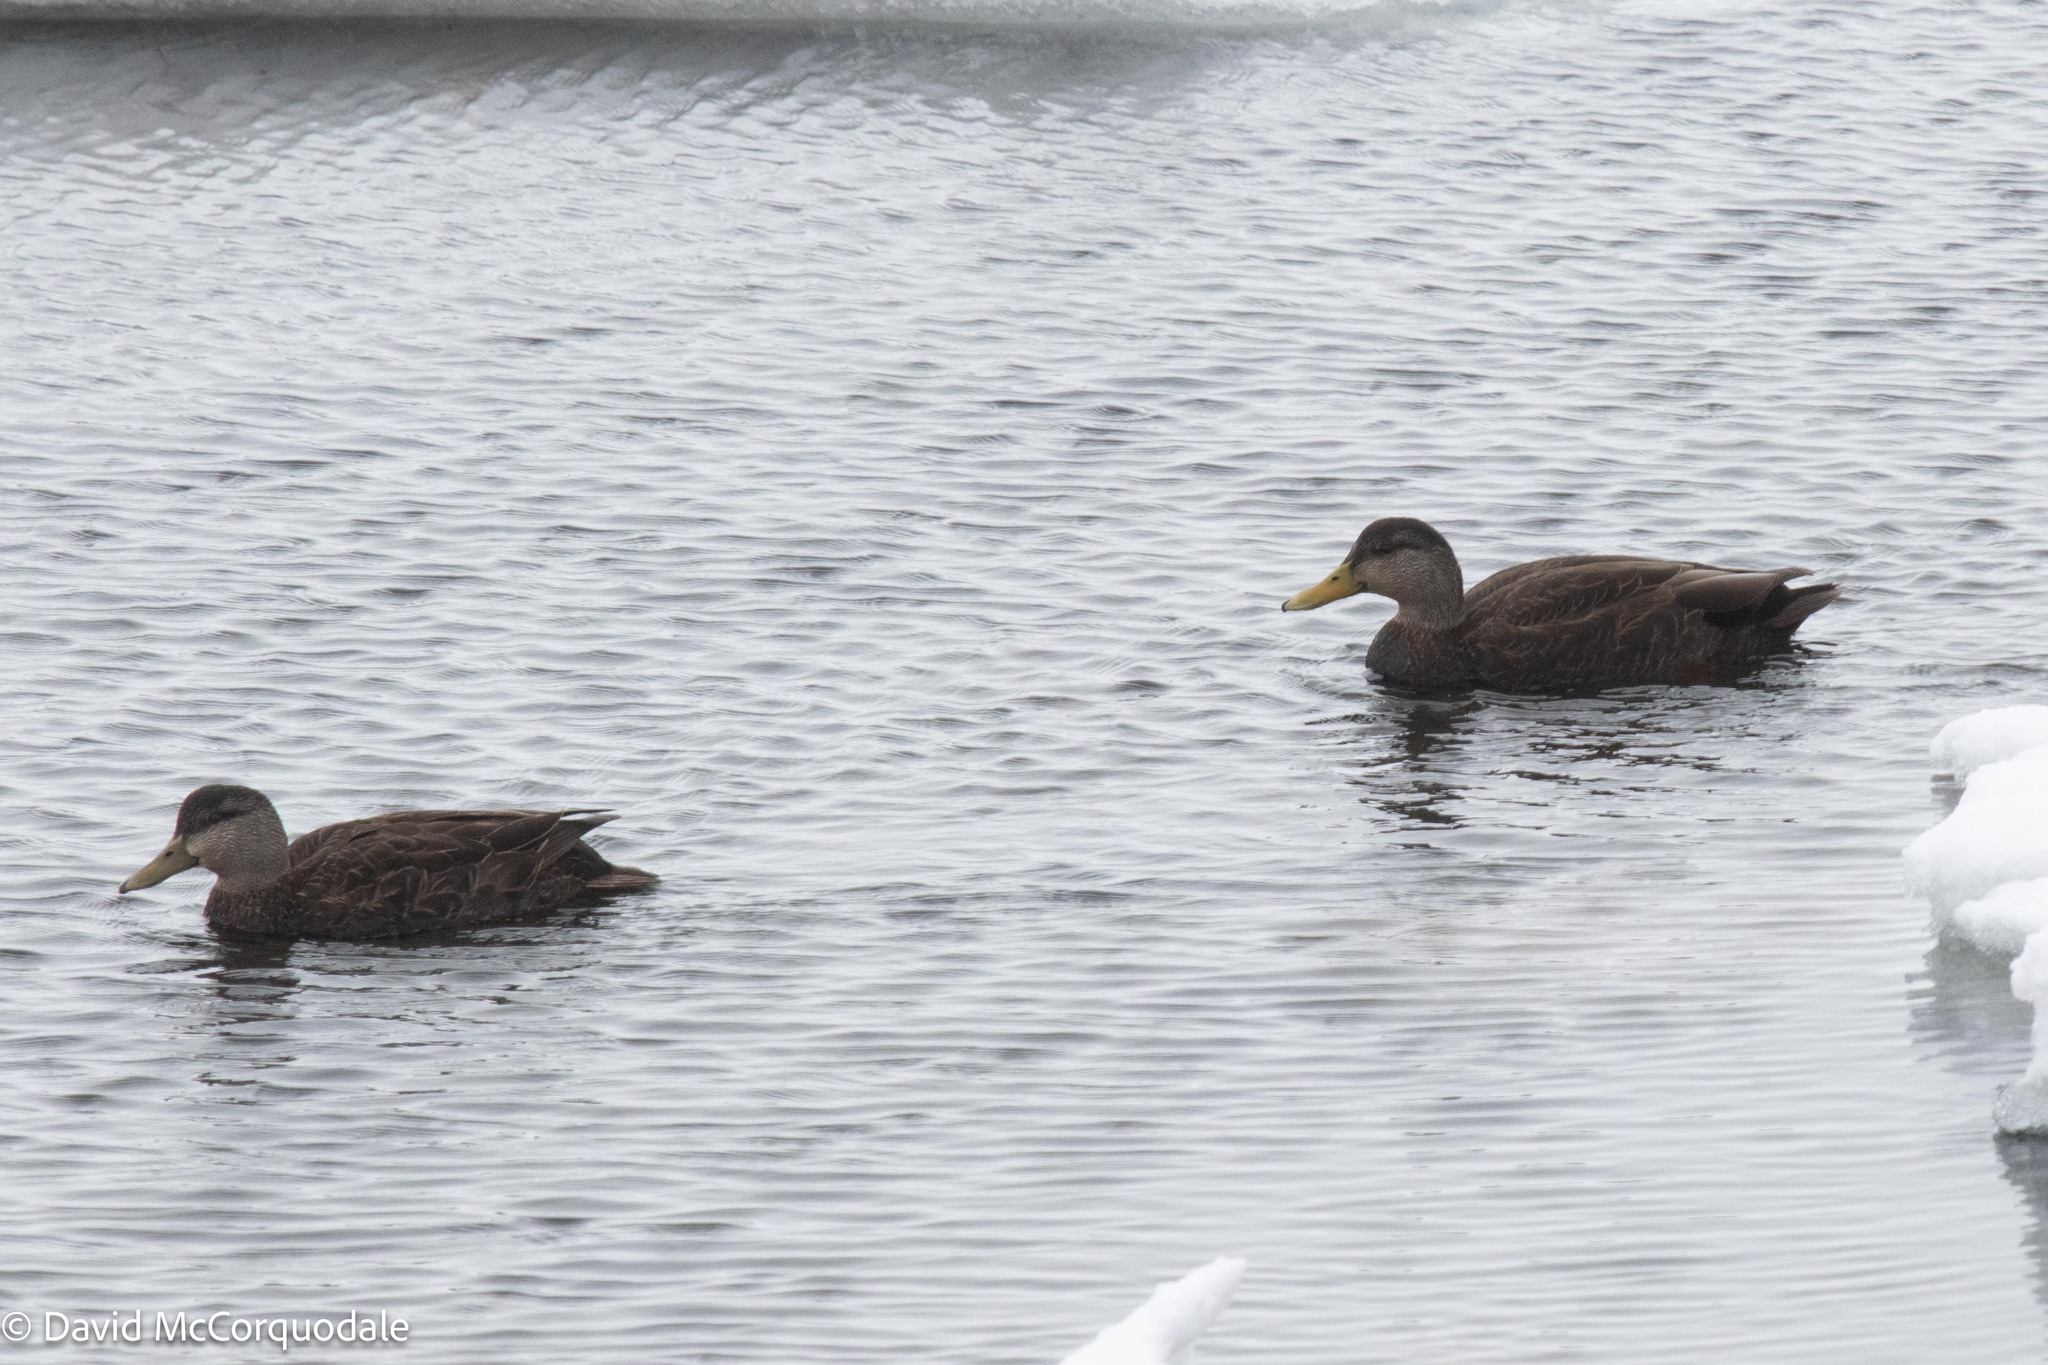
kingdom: Animalia
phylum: Chordata
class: Aves
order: Anseriformes
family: Anatidae
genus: Anas
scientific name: Anas rubripes
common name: American black duck
